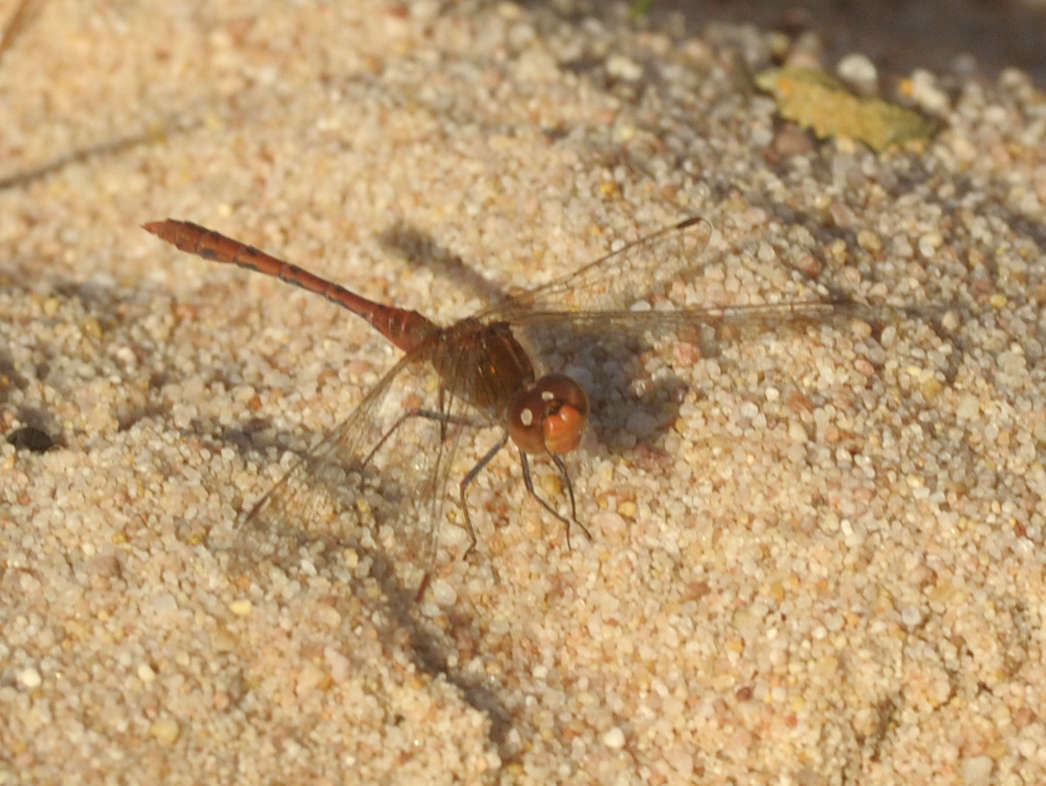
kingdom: Animalia
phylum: Arthropoda
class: Insecta
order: Odonata
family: Libellulidae
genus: Diplacodes
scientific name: Diplacodes bipunctata
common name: Red percher dragonfly
